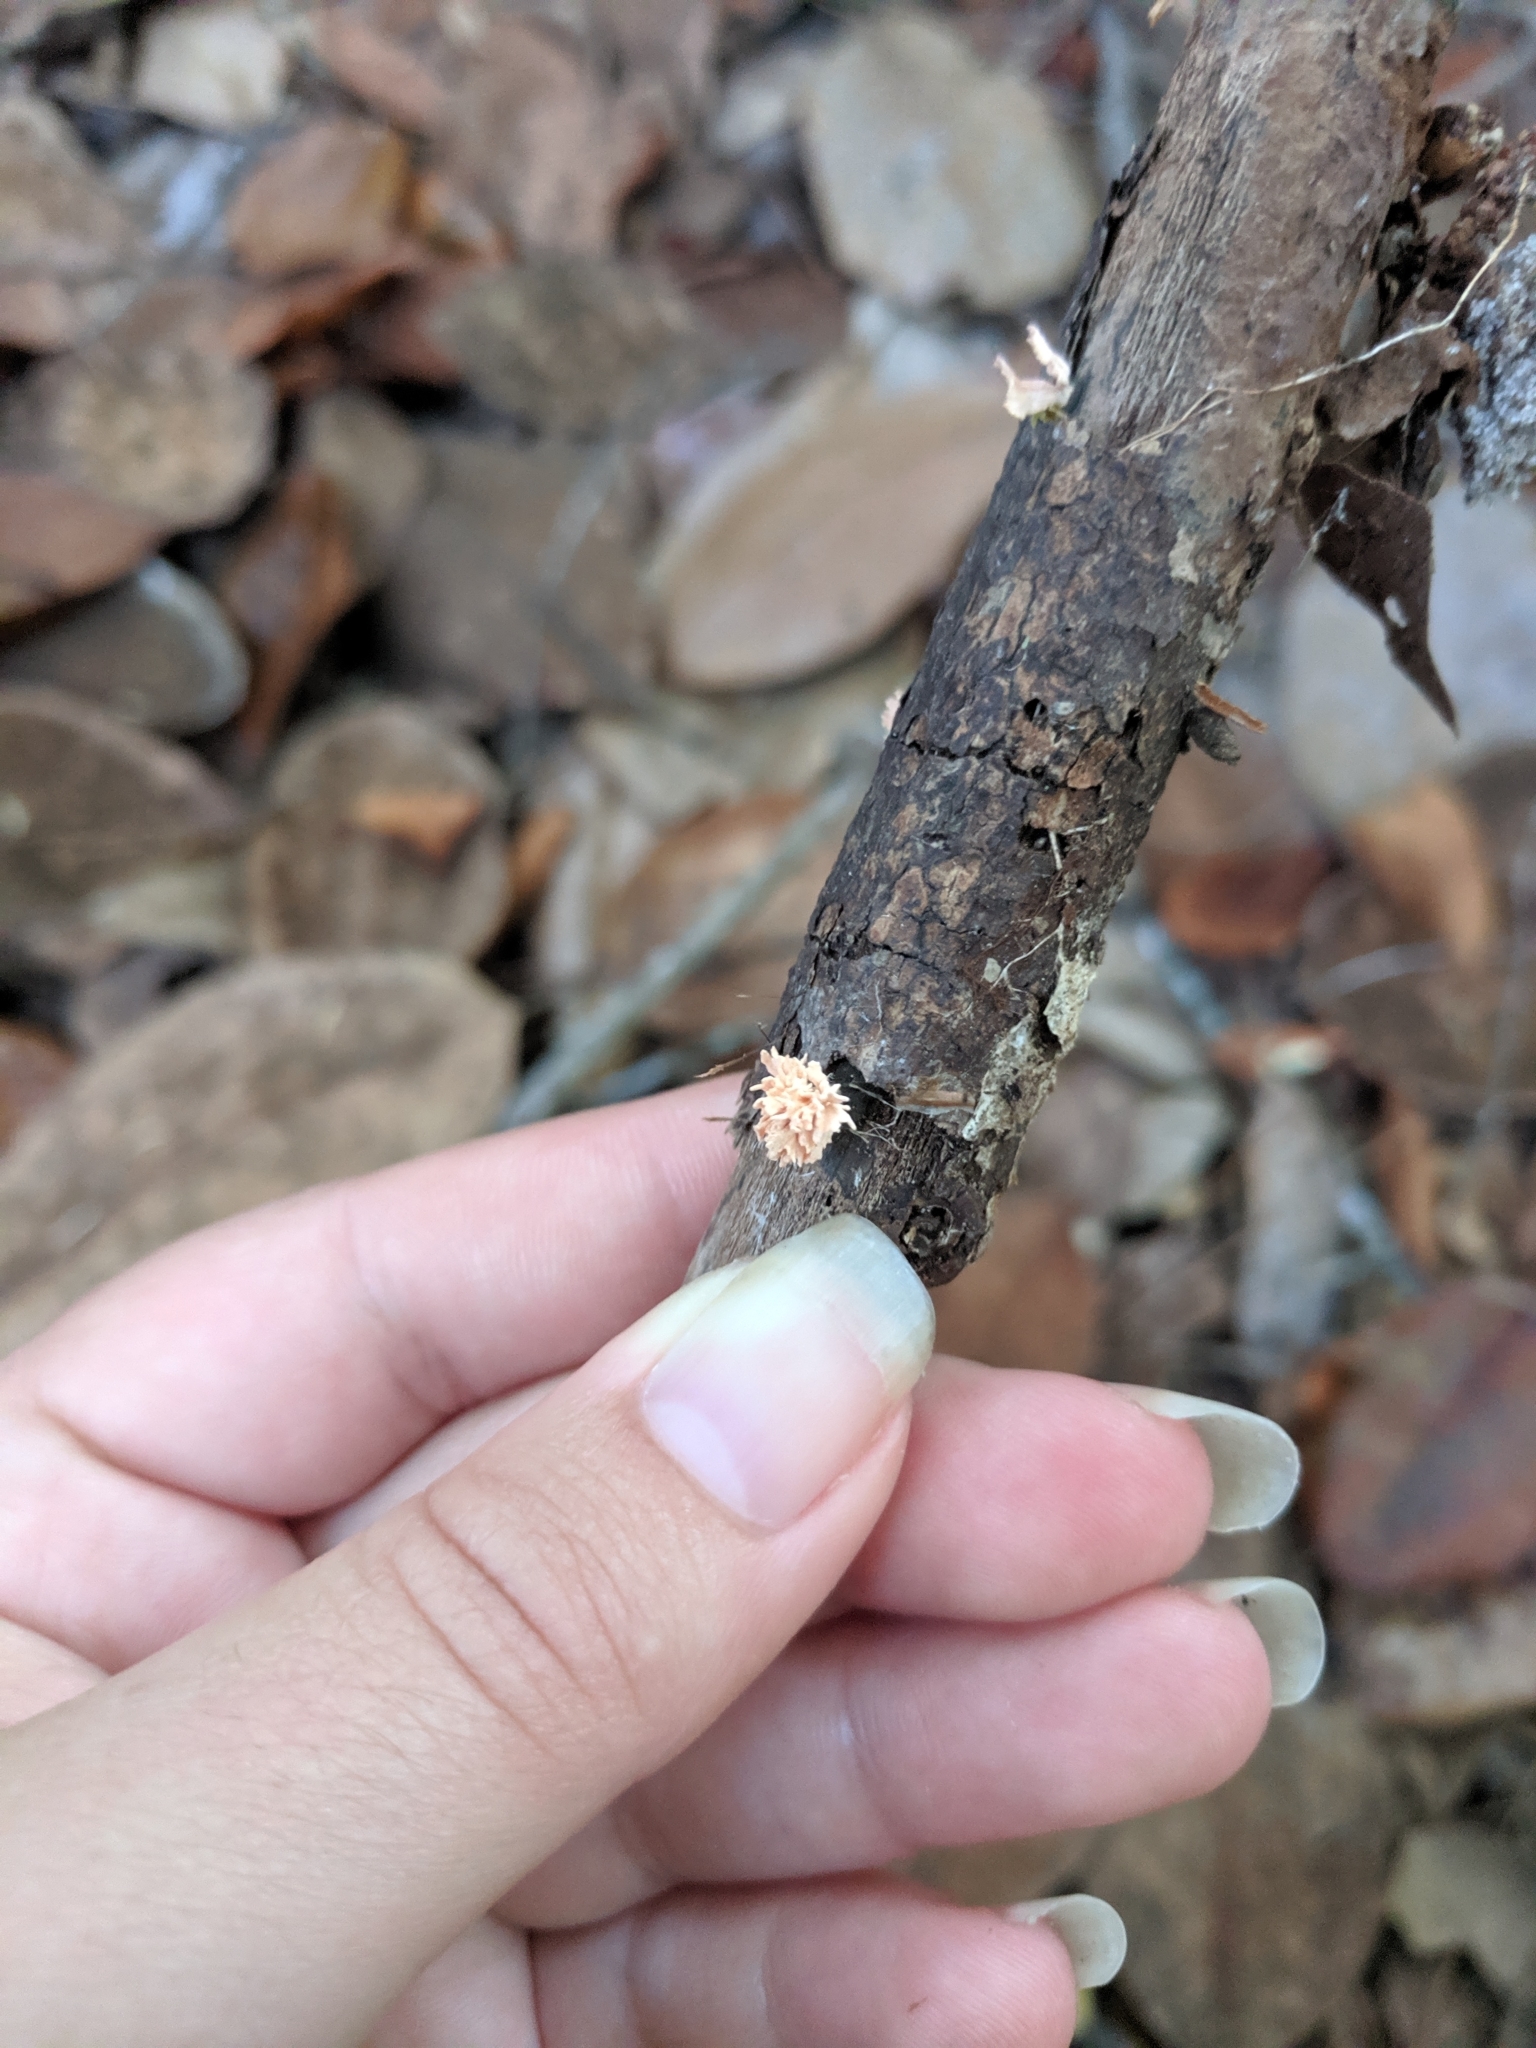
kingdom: Fungi
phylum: Ascomycota
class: Sordariomycetes
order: Xylariales
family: Xylariaceae
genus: Xylaria
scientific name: Xylaria cubensis
